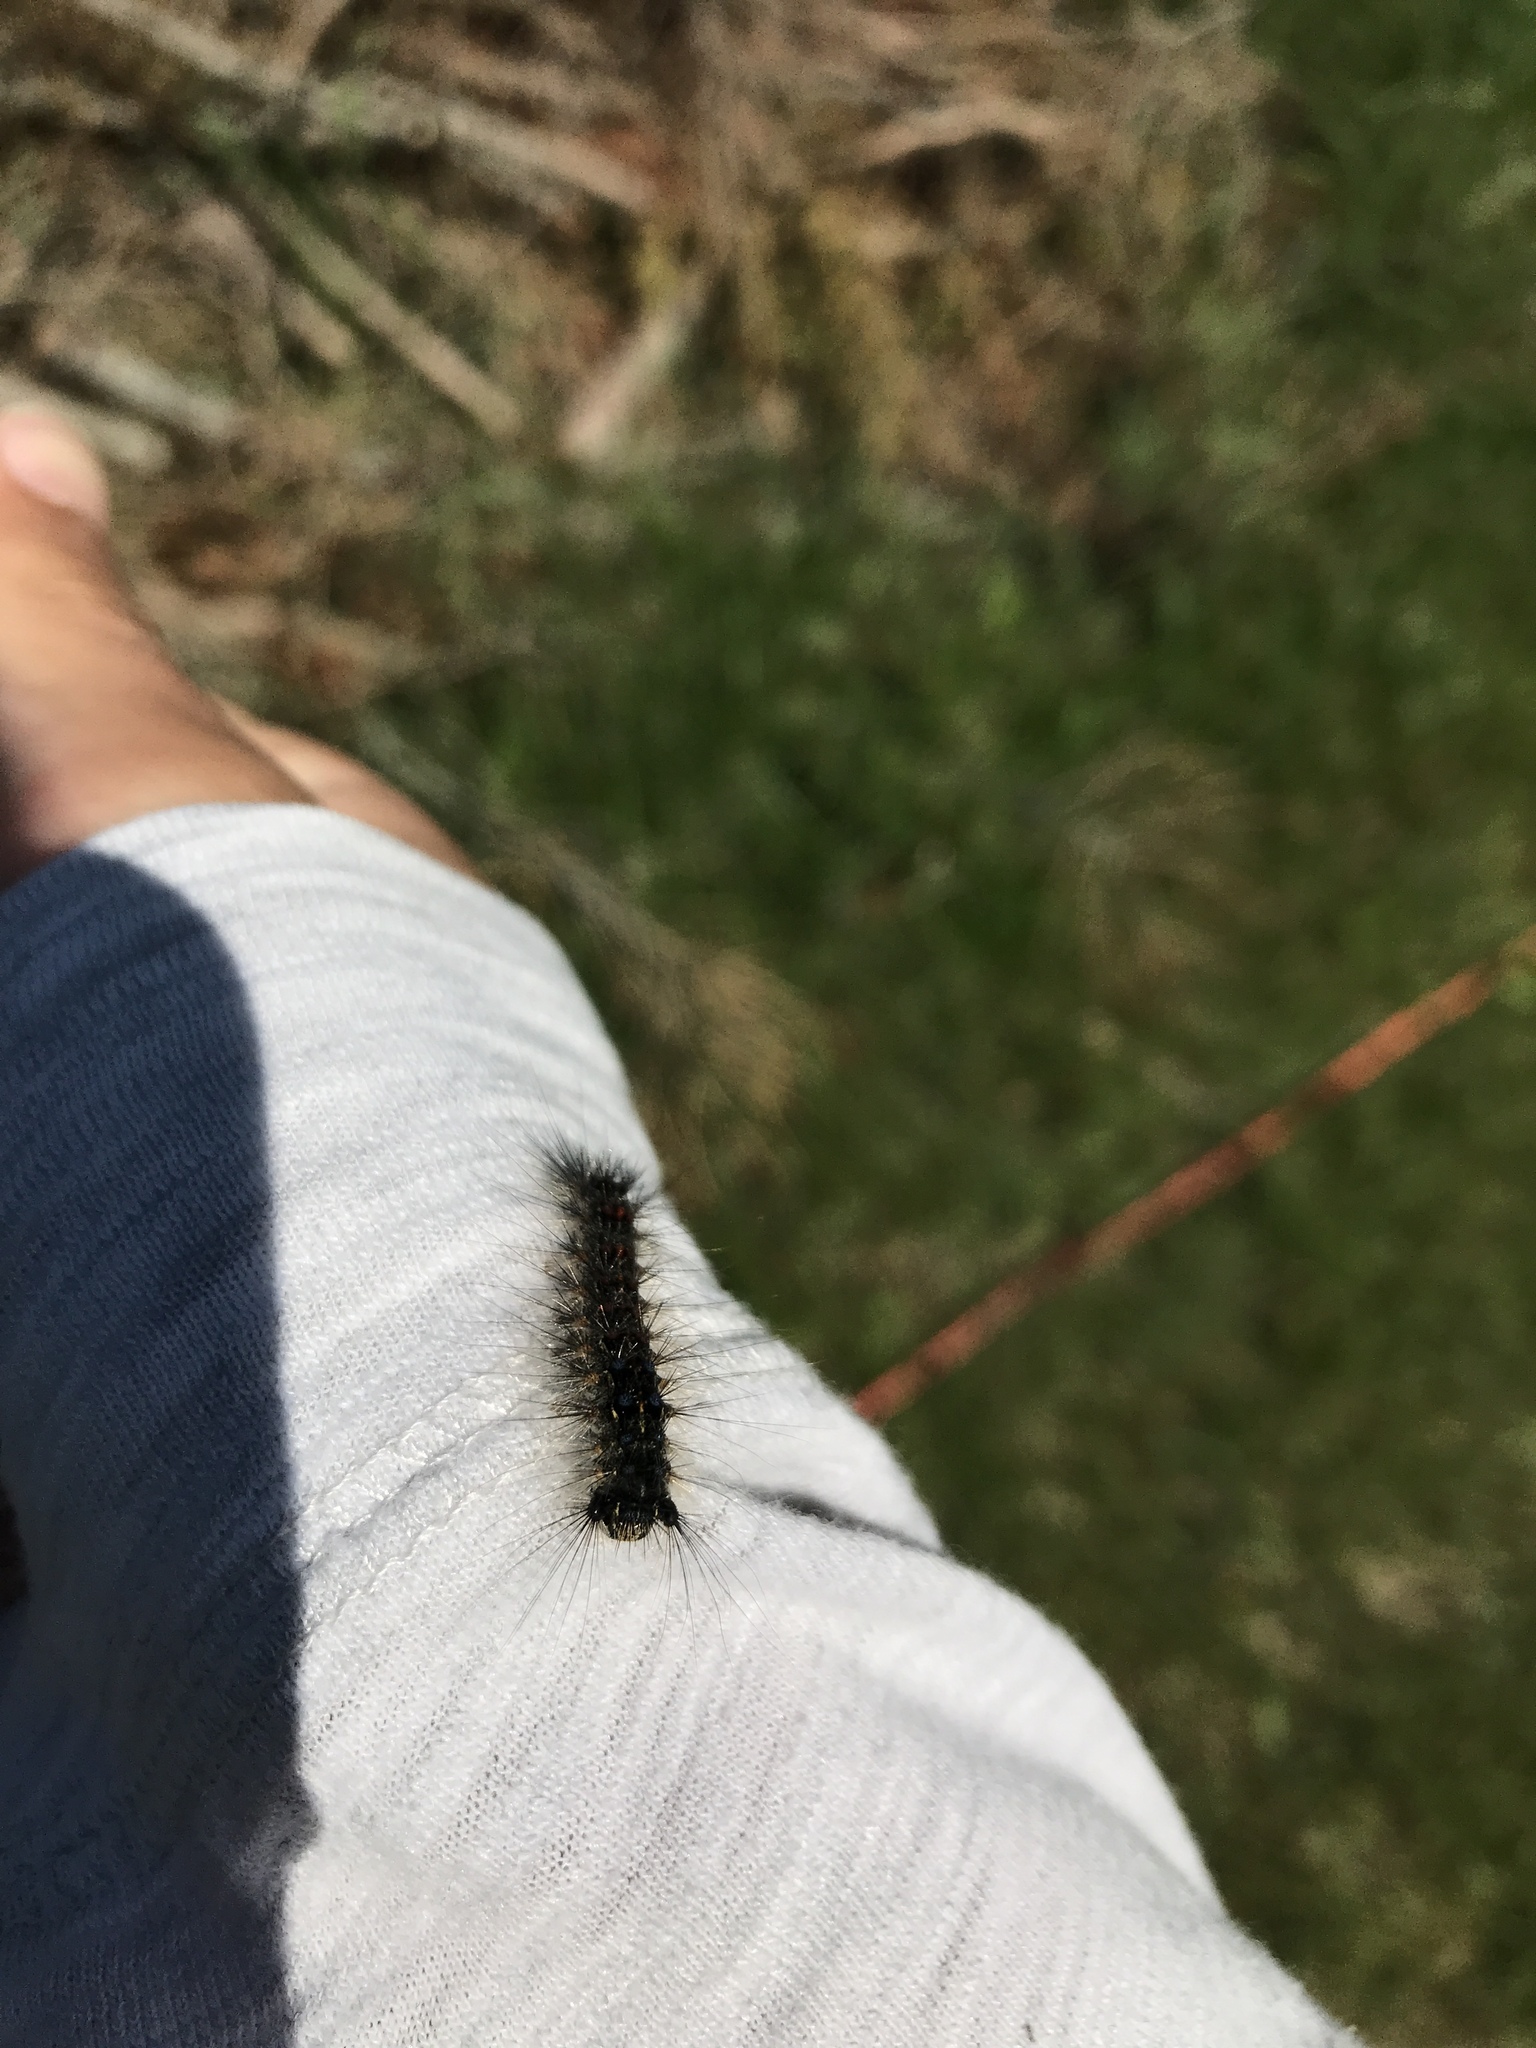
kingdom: Animalia
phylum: Arthropoda
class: Insecta
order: Lepidoptera
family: Erebidae
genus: Lymantria
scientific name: Lymantria dispar
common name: Gypsy moth
